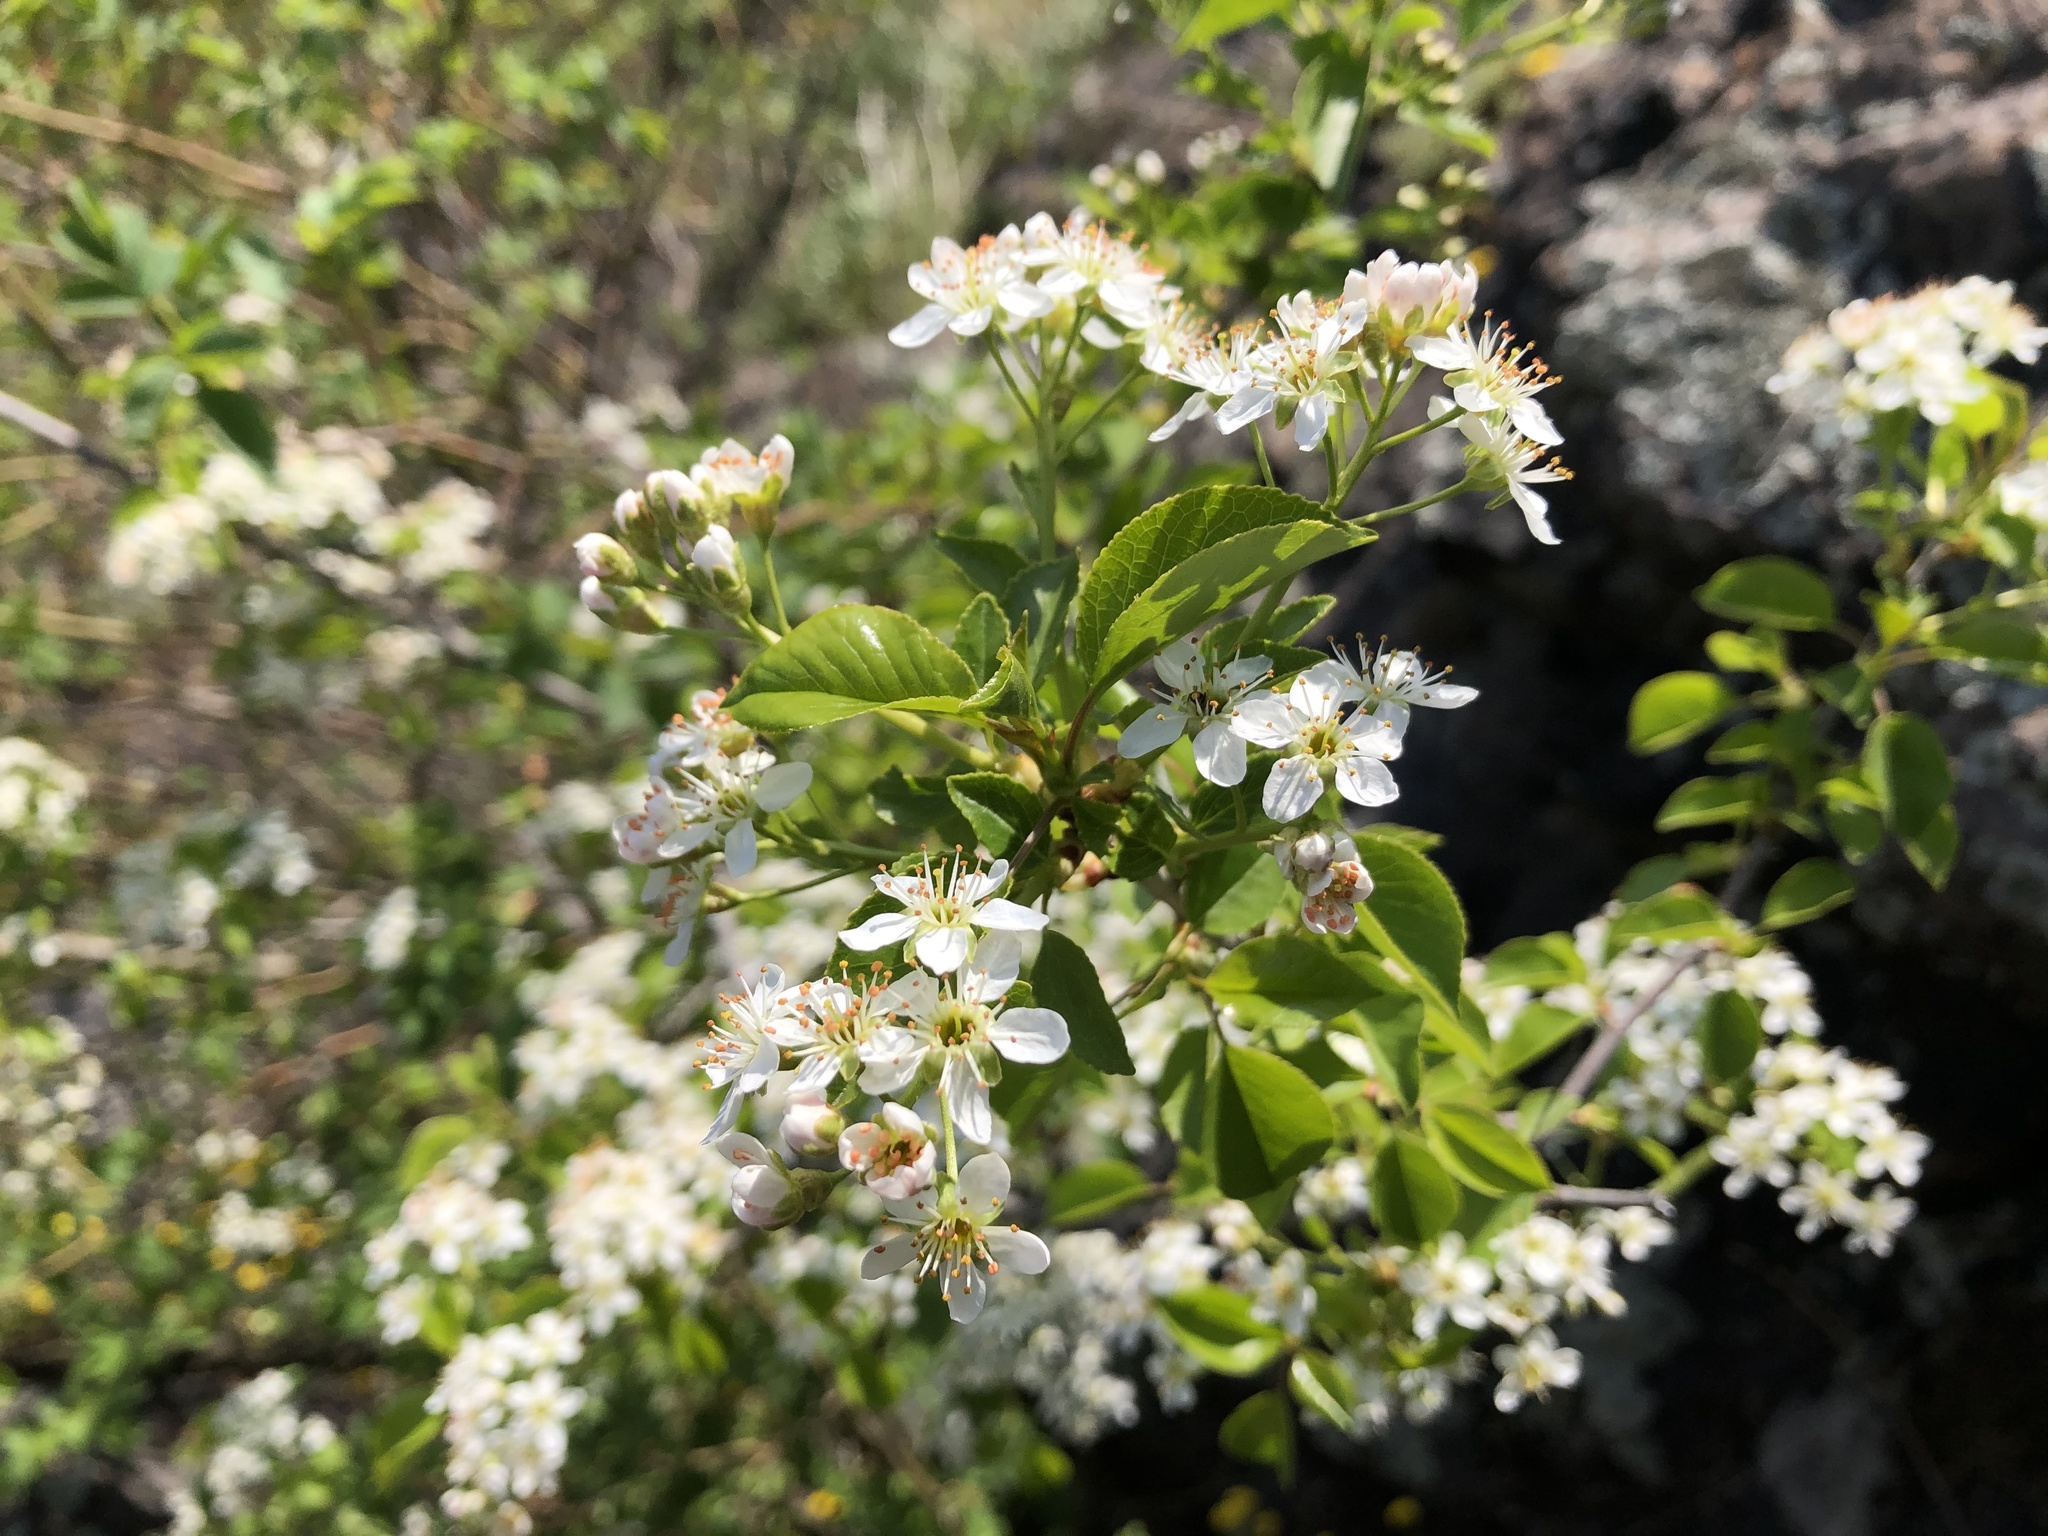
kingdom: Plantae
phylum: Tracheophyta
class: Magnoliopsida
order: Rosales
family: Rosaceae
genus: Prunus
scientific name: Prunus mahaleb
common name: Mahaleb cherry
